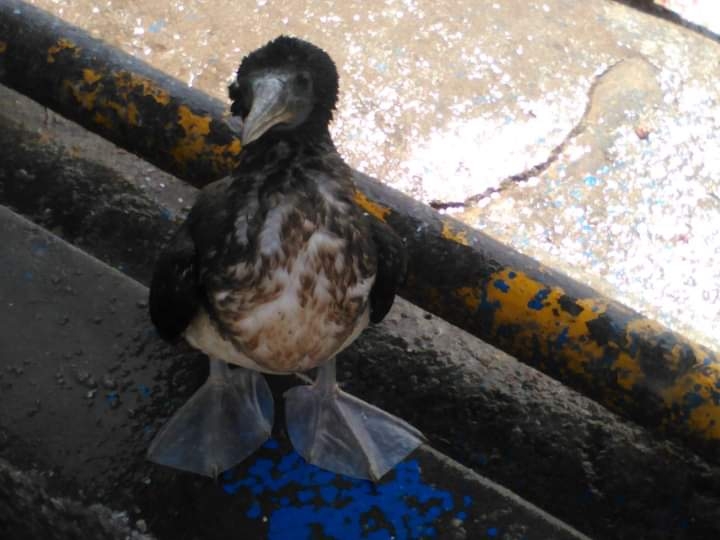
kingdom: Animalia
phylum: Chordata
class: Aves
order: Suliformes
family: Sulidae
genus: Sula
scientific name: Sula leucogaster
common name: Brown booby
